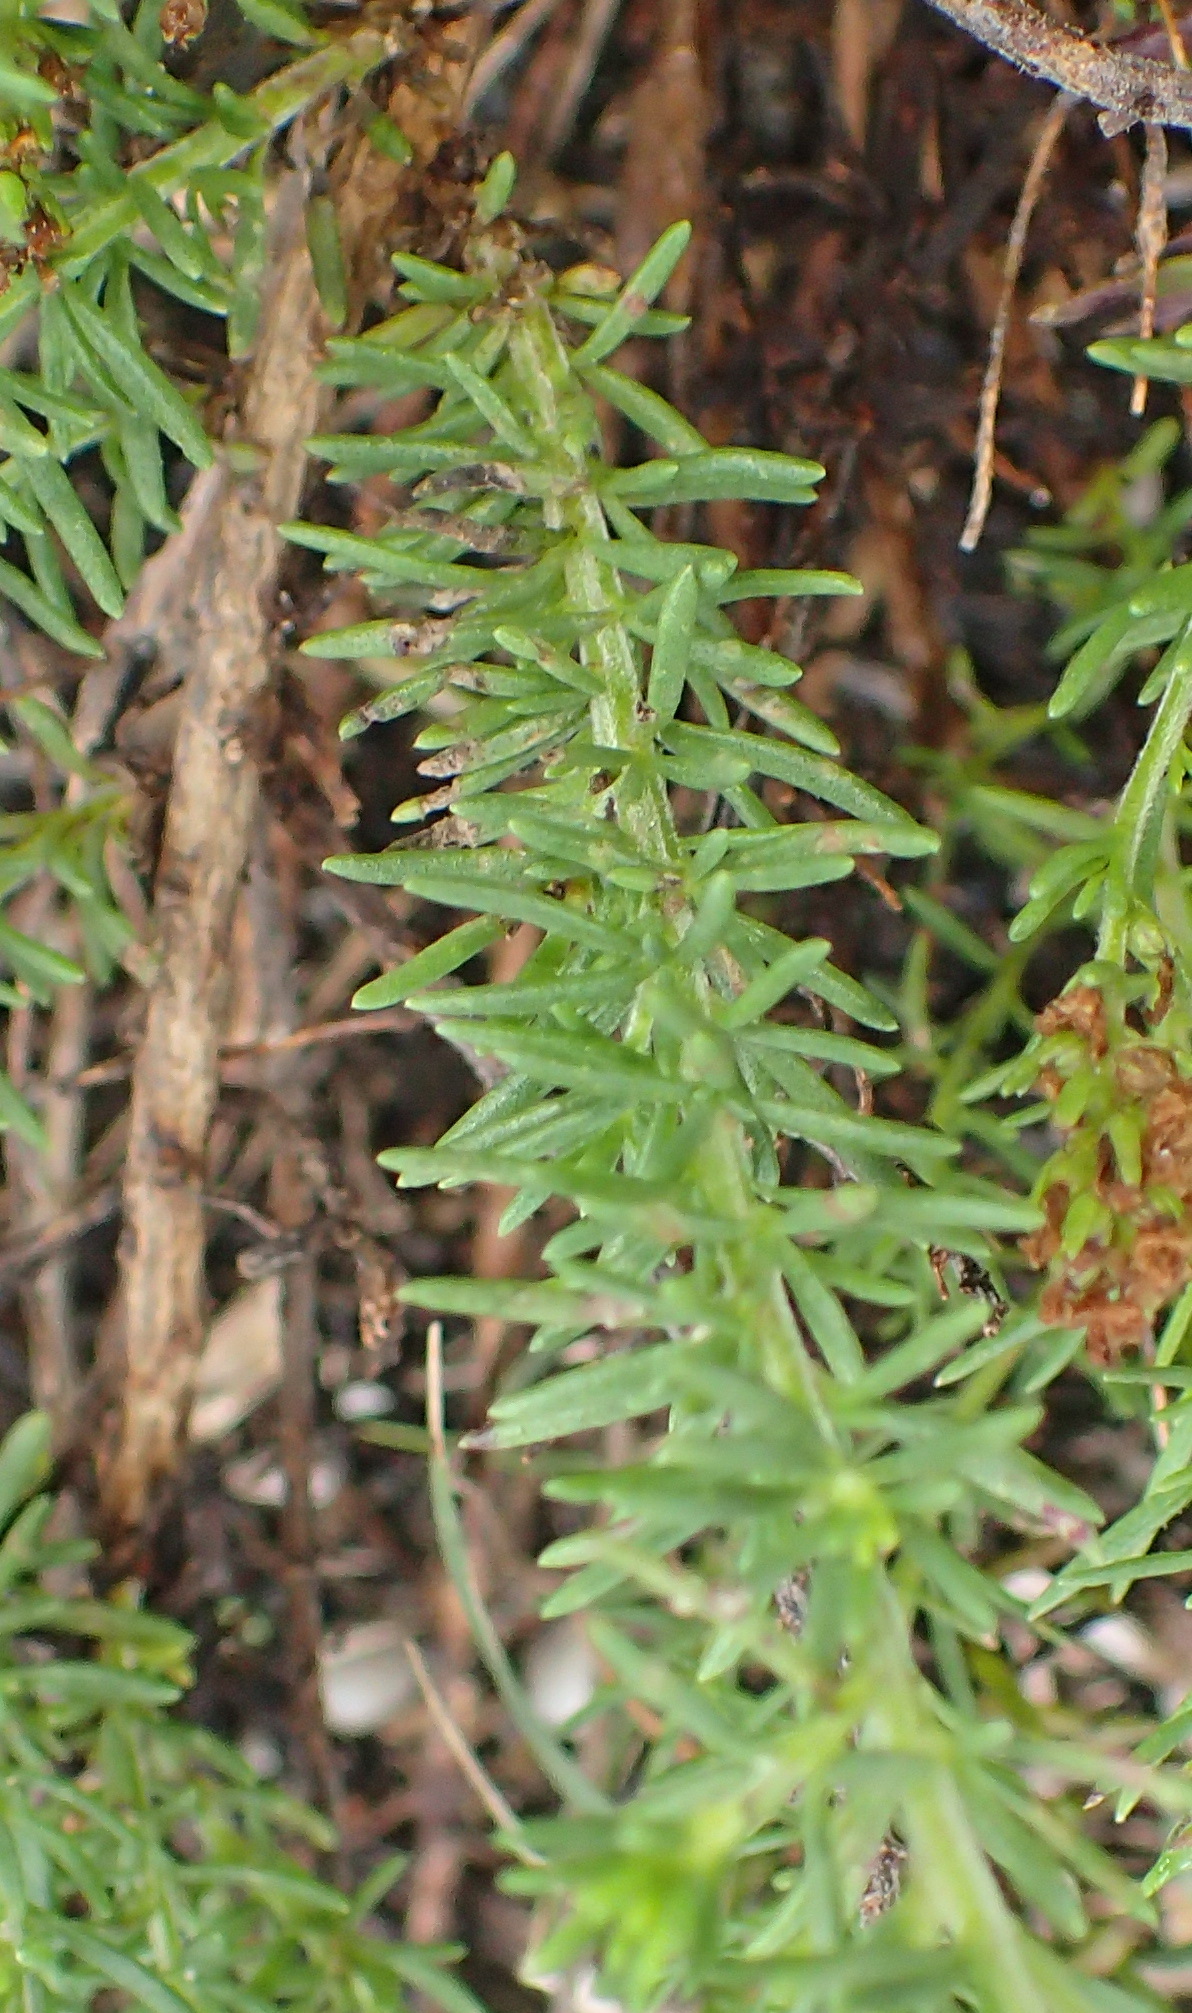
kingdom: Plantae
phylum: Tracheophyta
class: Magnoliopsida
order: Lamiales
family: Scrophulariaceae
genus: Selago
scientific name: Selago canescens
